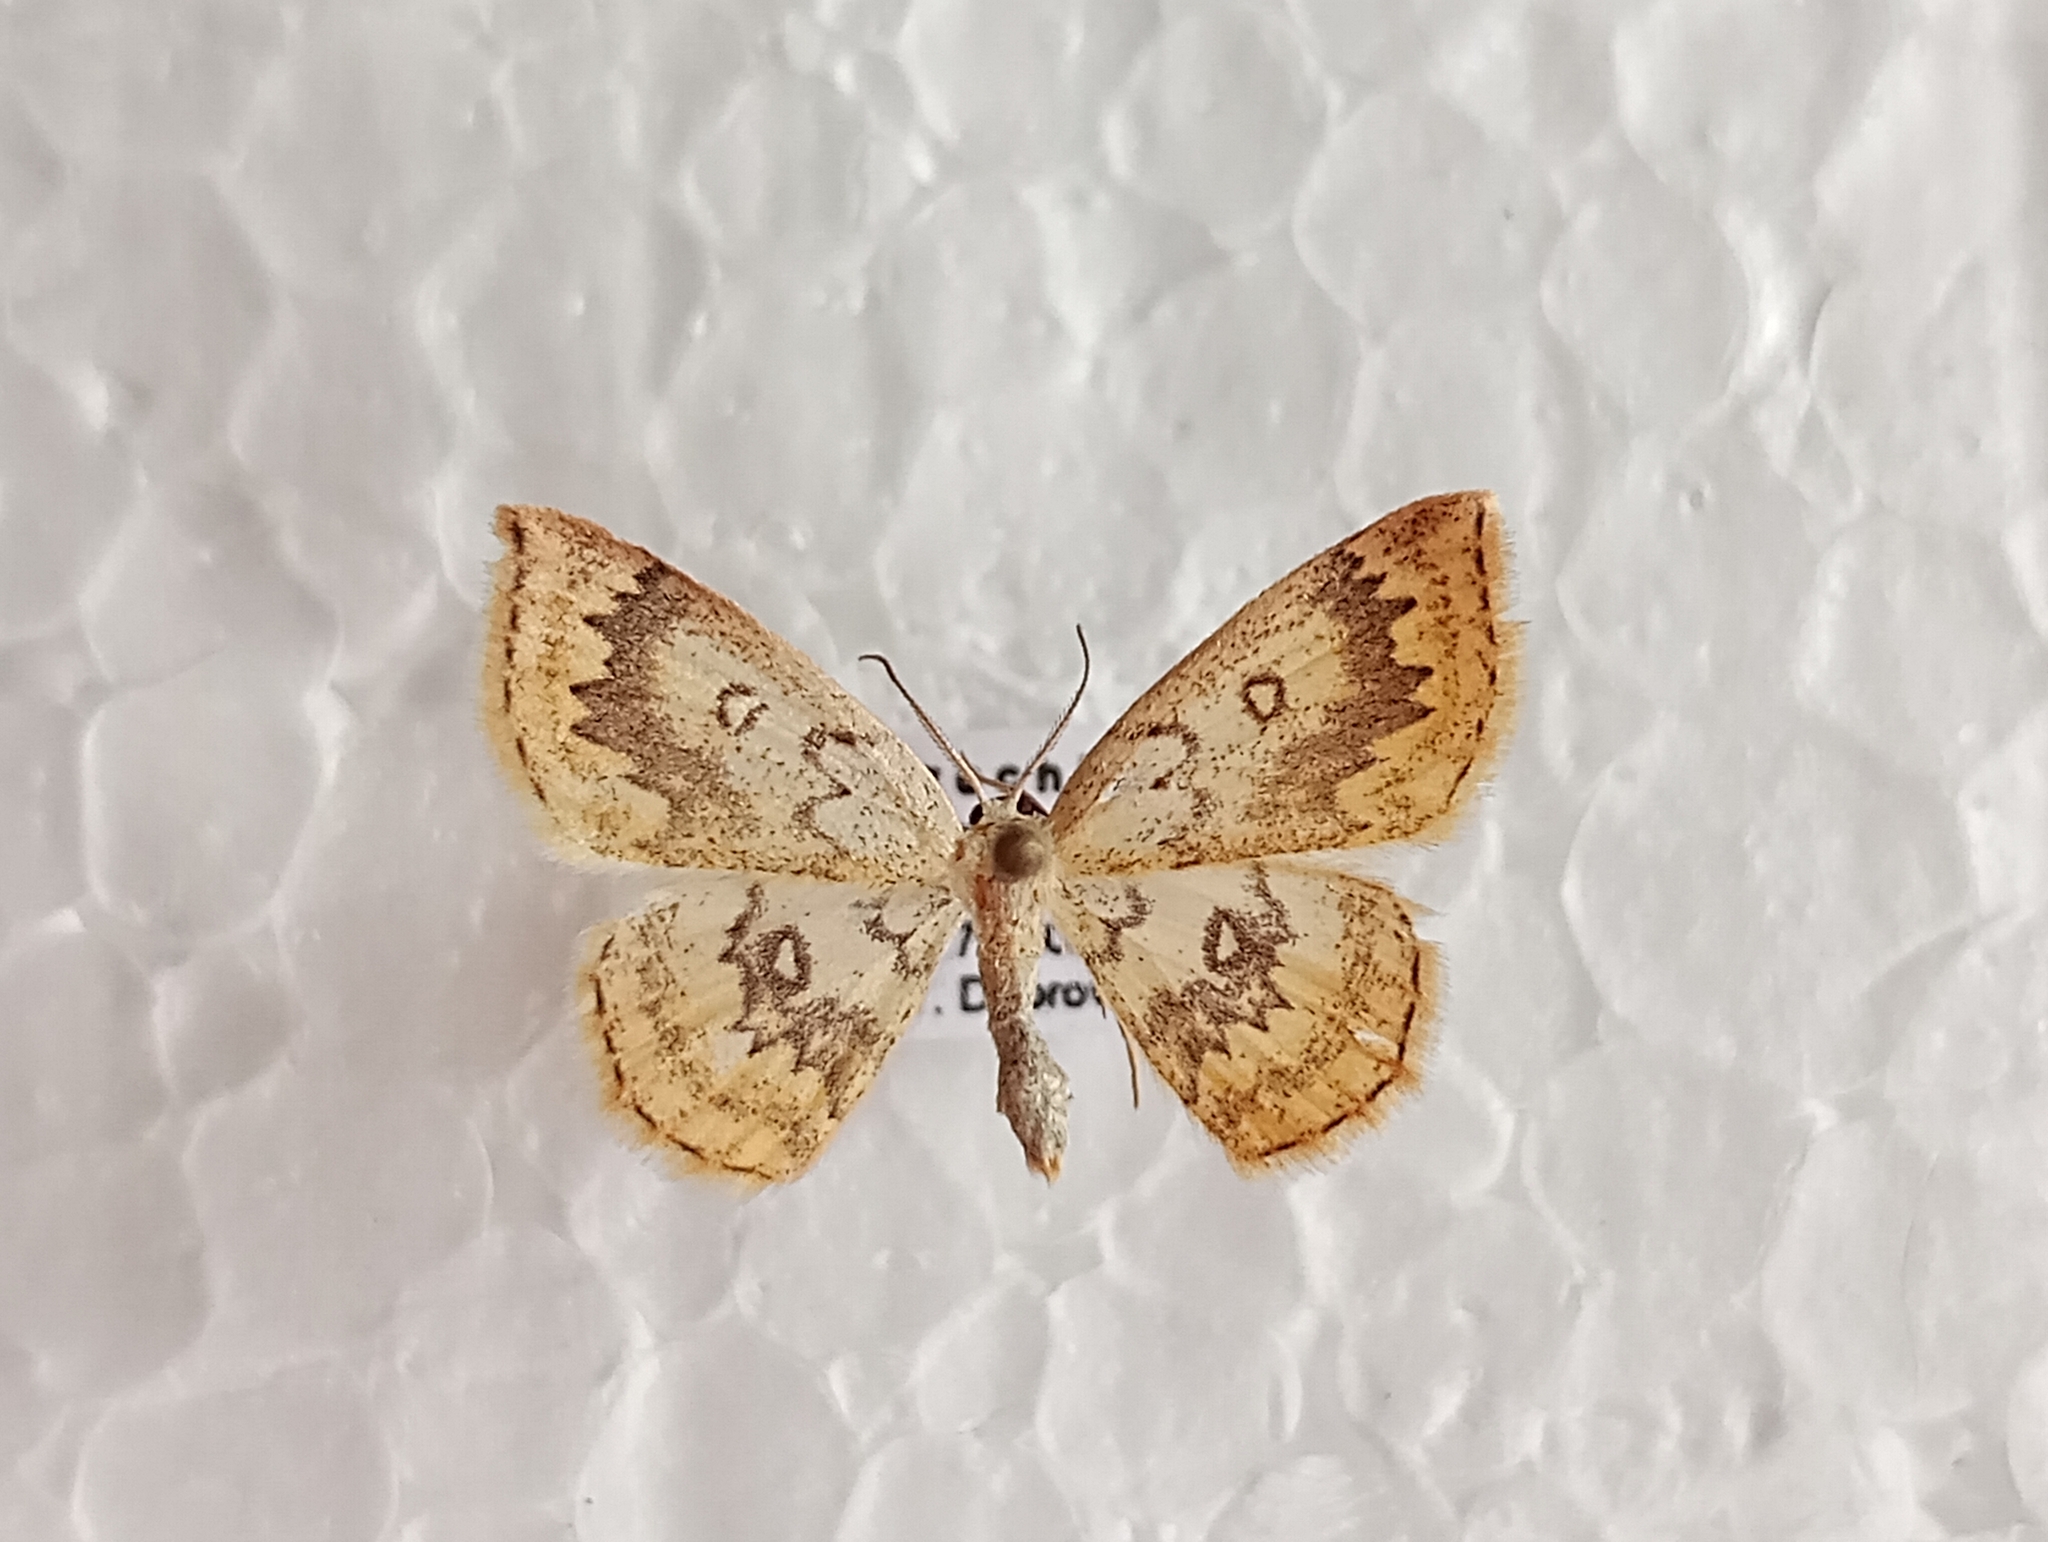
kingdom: Animalia
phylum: Arthropoda
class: Insecta
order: Lepidoptera
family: Geometridae
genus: Cyclophora
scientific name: Cyclophora annularia
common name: Mocha
